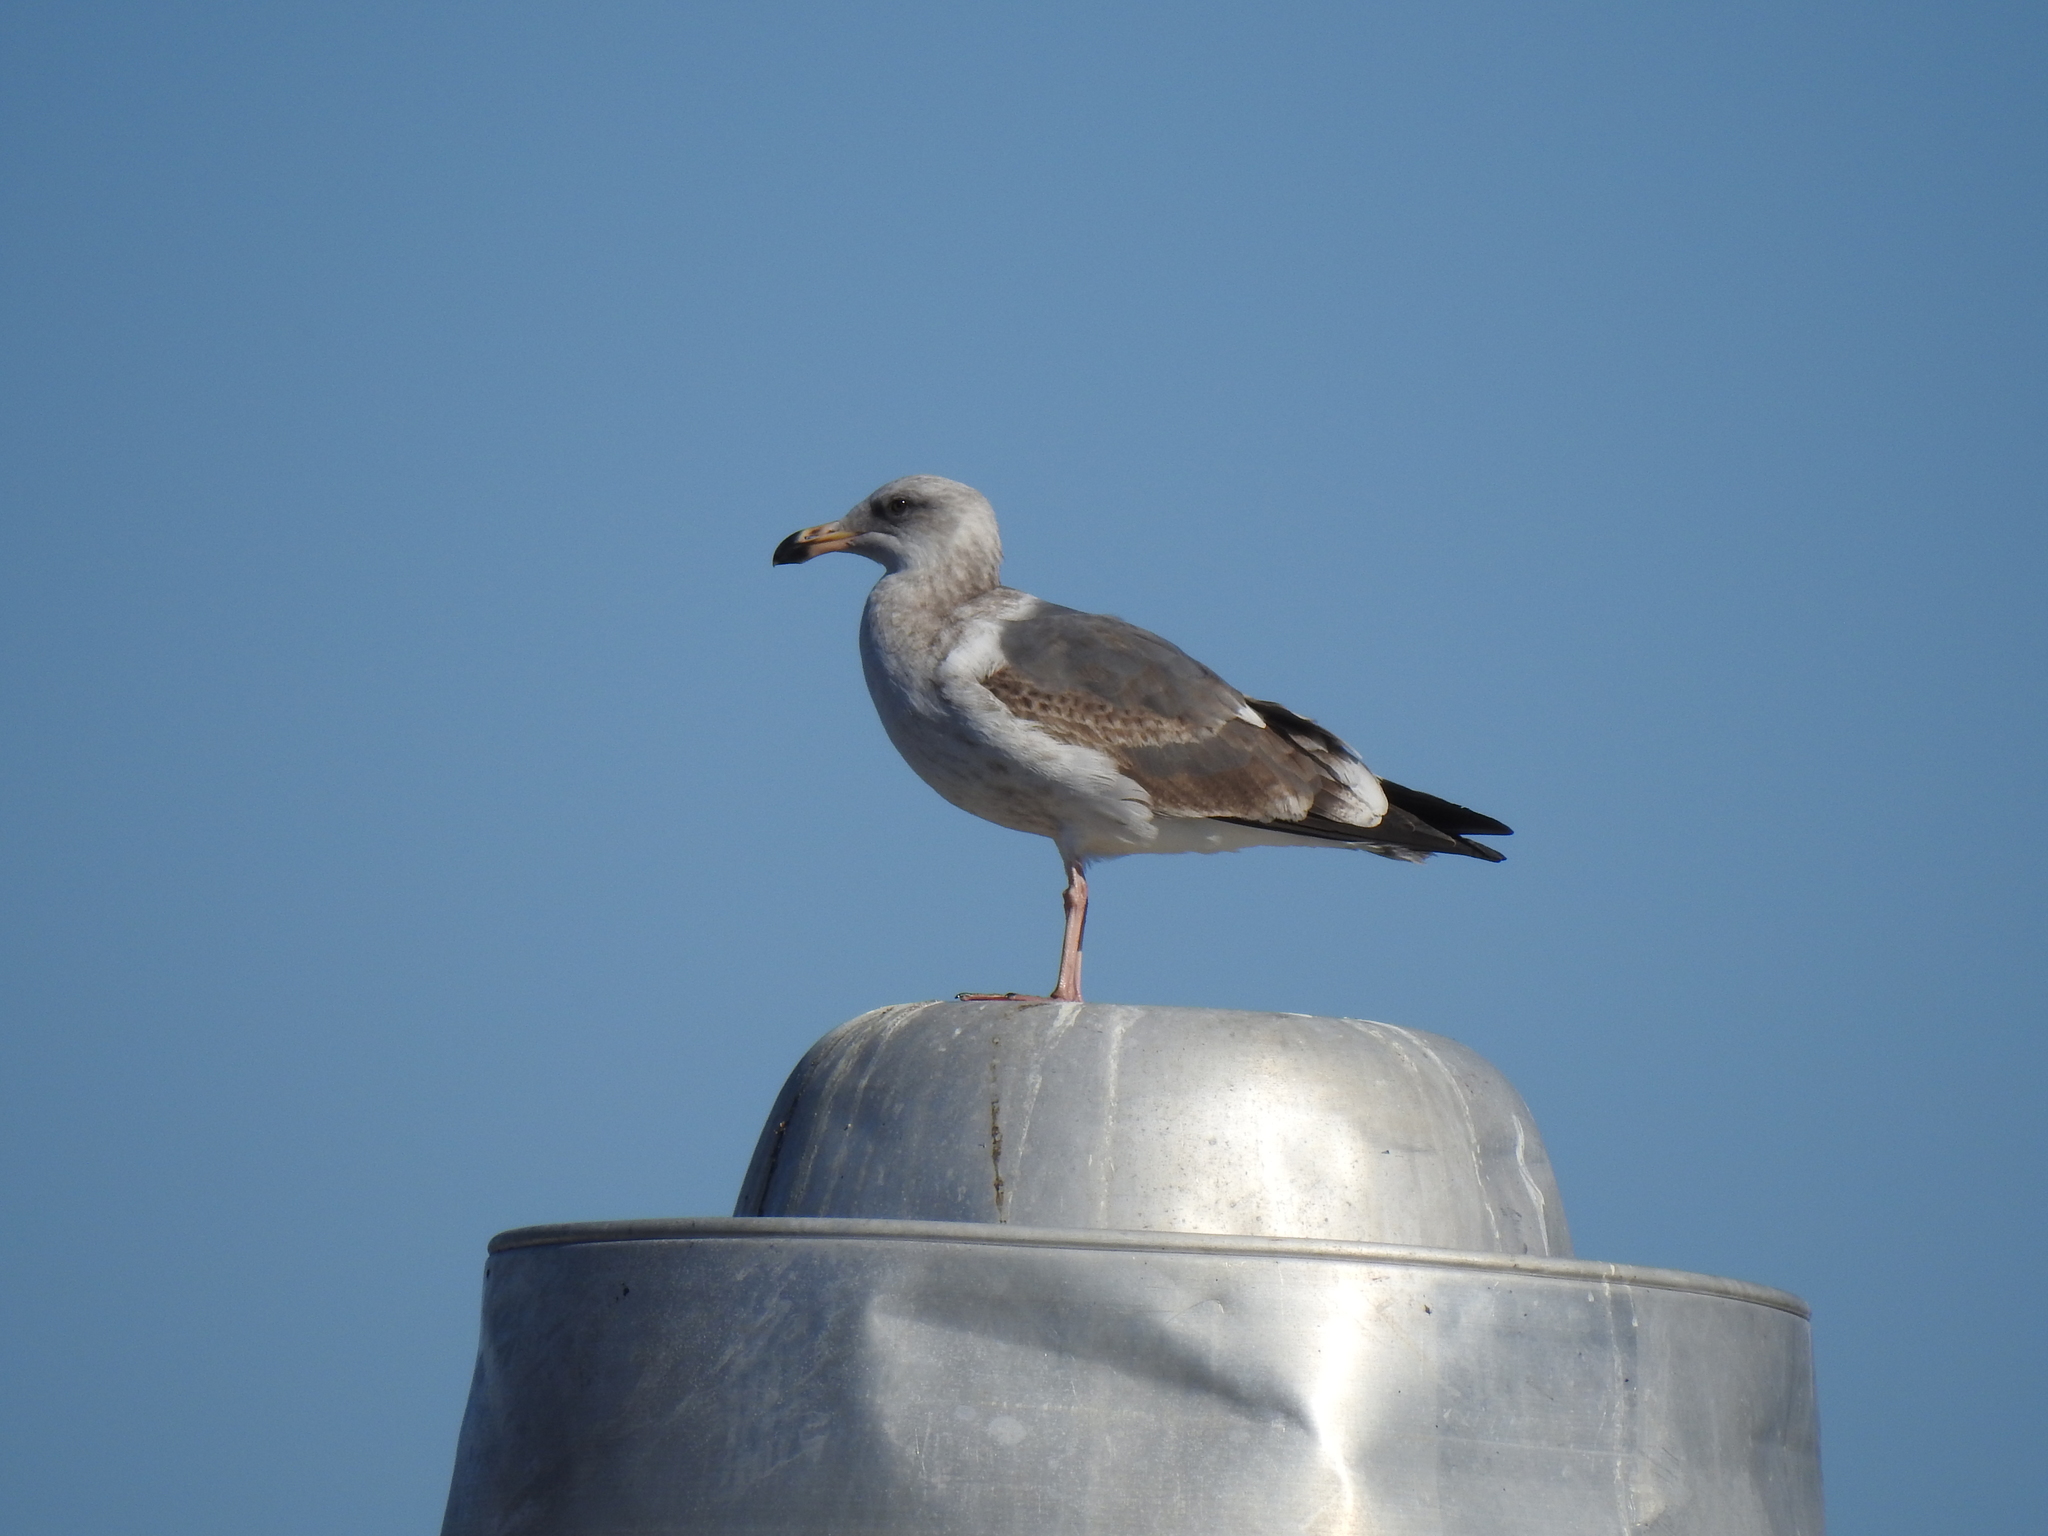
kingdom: Animalia
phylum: Chordata
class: Aves
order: Charadriiformes
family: Laridae
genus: Larus
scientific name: Larus occidentalis
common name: Western gull
